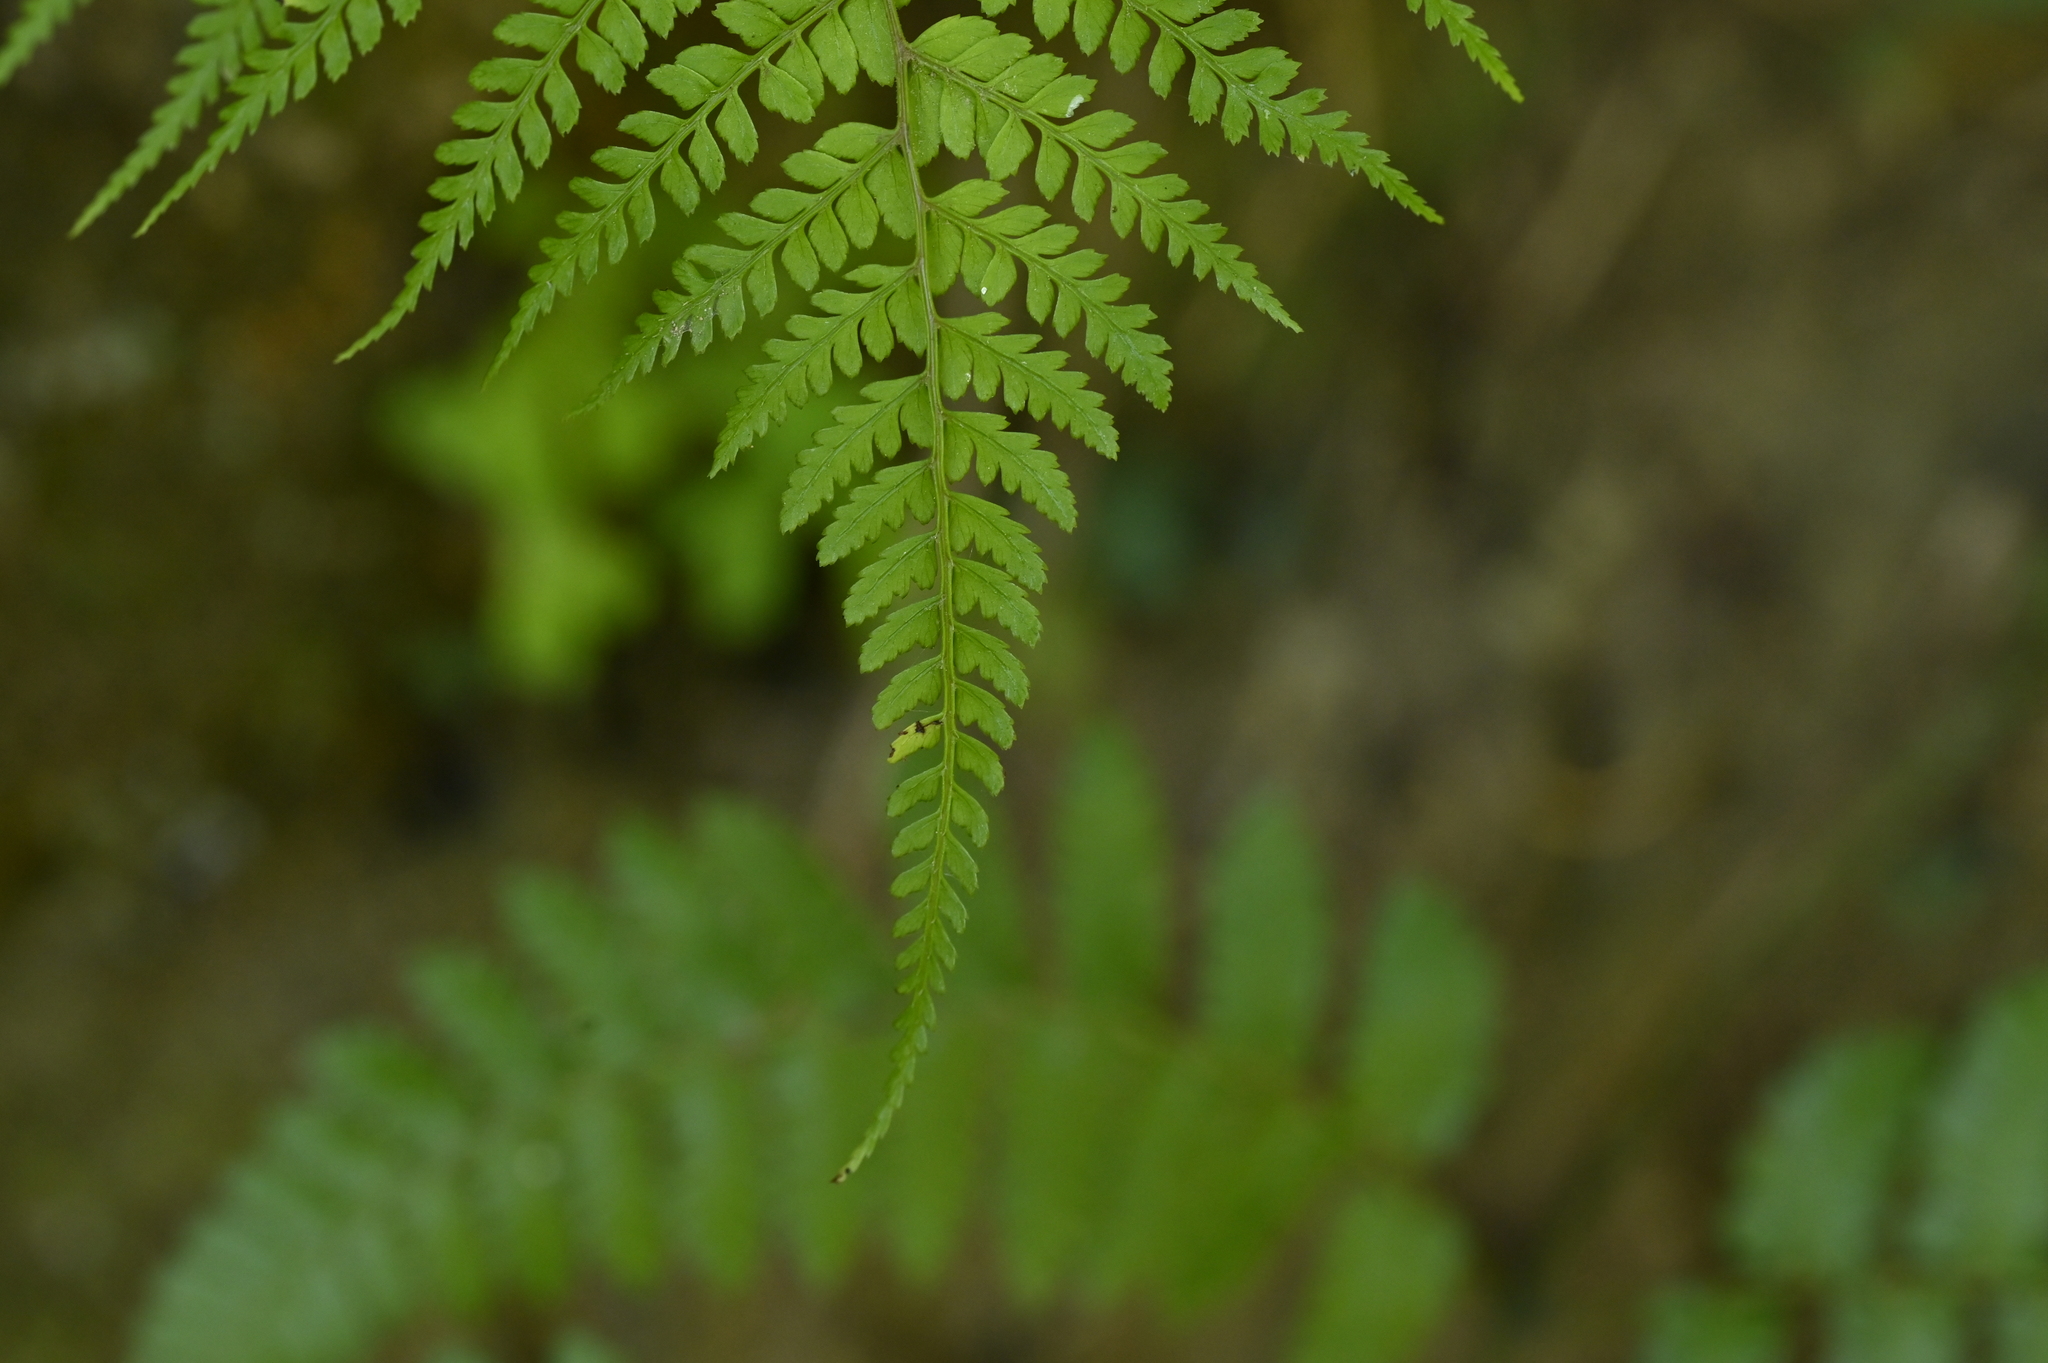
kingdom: Plantae
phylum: Tracheophyta
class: Polypodiopsida
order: Polypodiales
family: Athyriaceae
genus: Athyrium
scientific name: Athyrium subrigescens
